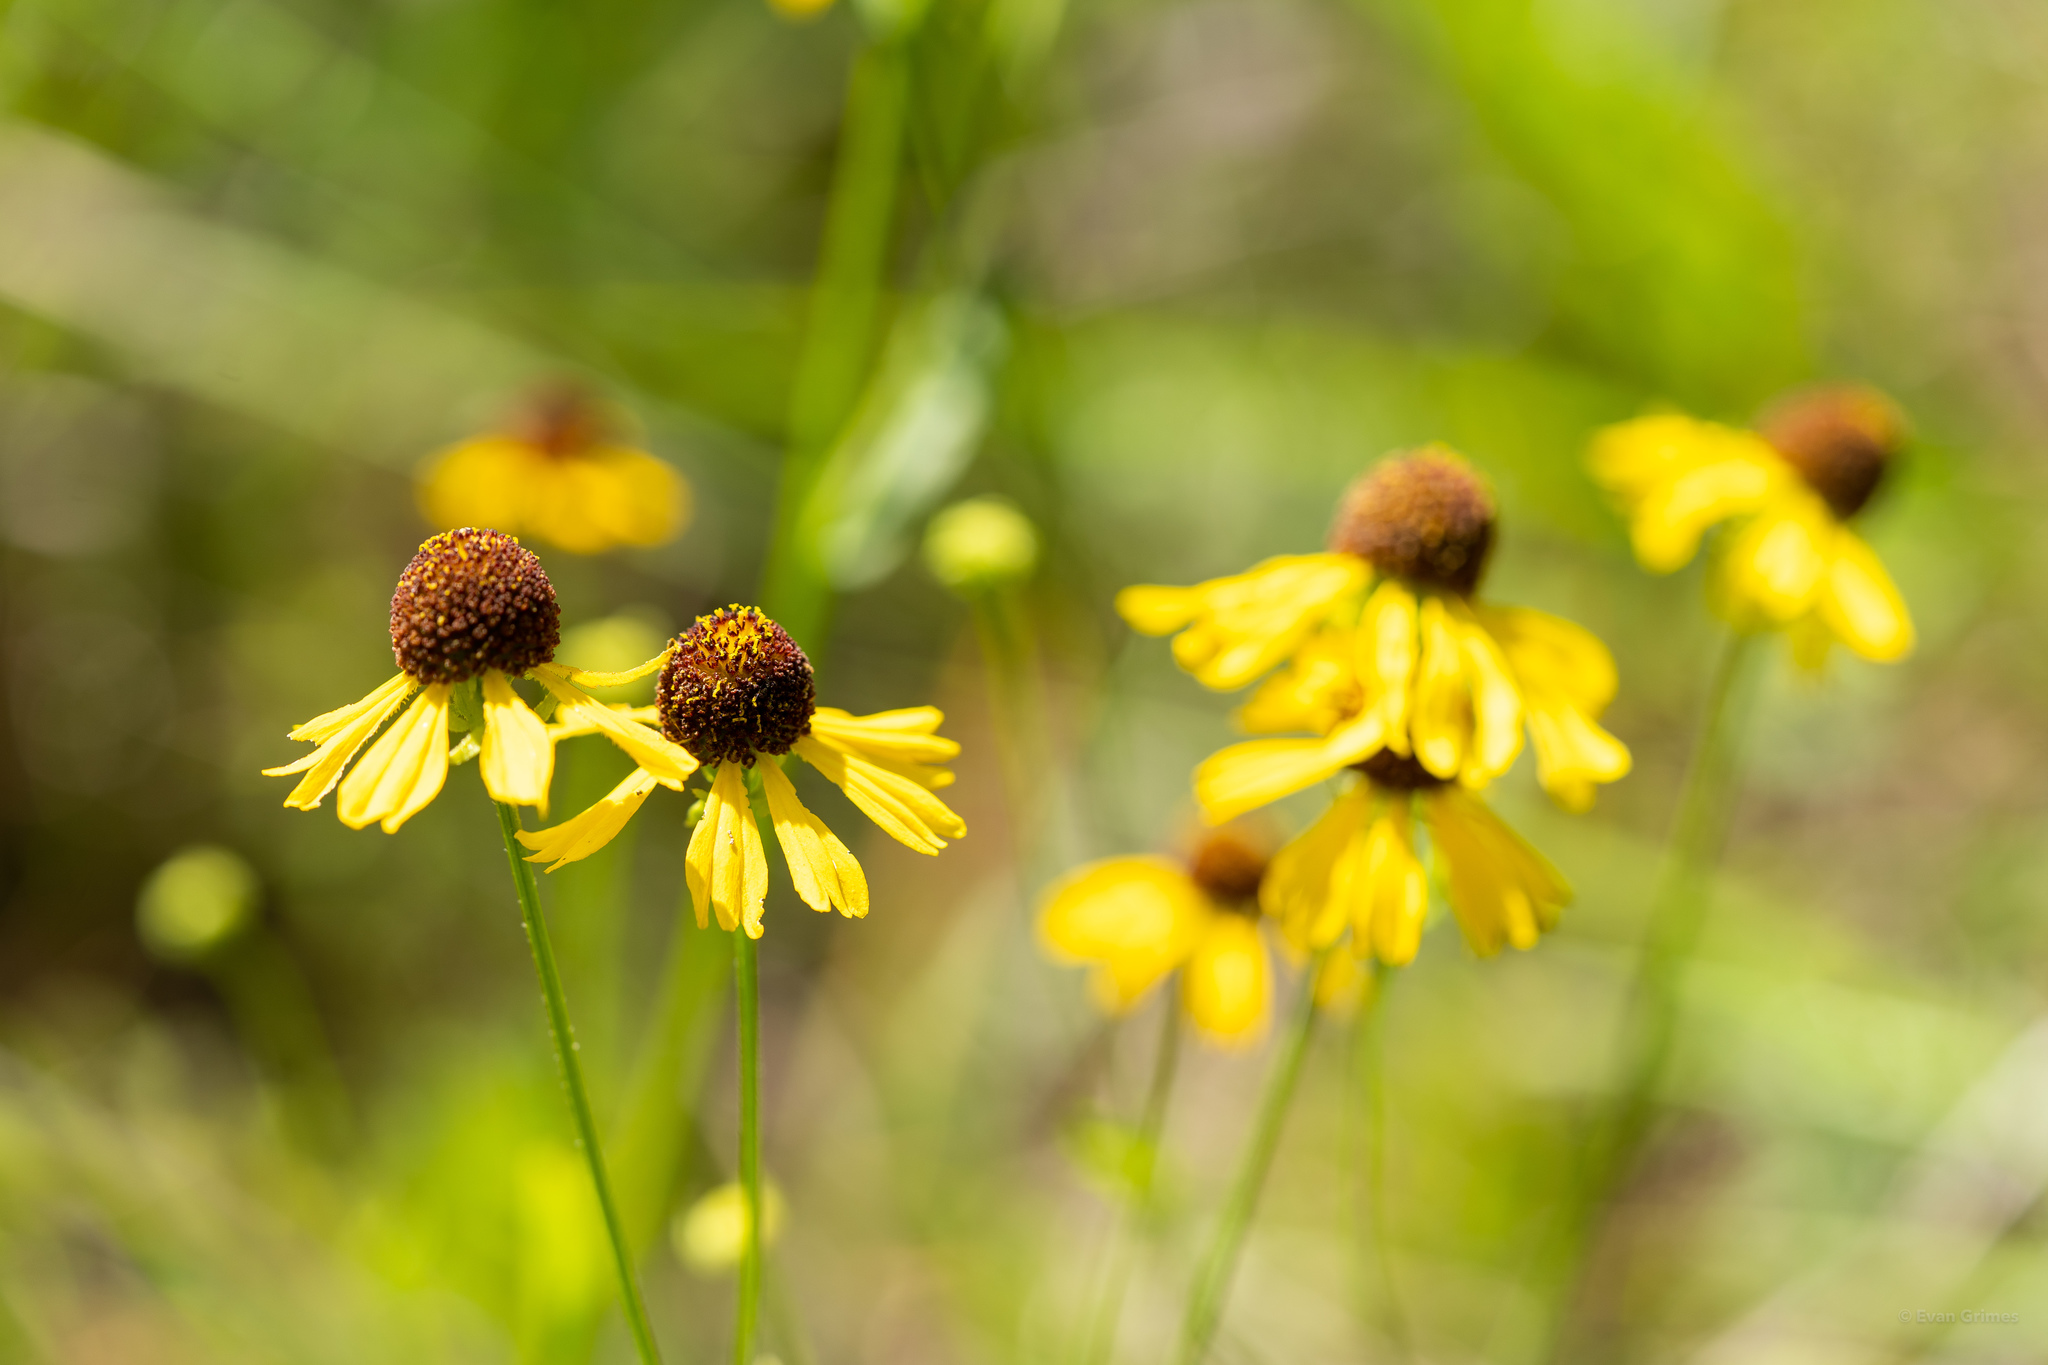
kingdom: Plantae
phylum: Tracheophyta
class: Magnoliopsida
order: Asterales
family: Asteraceae
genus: Helenium
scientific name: Helenium flexuosum
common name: Naked-flowered sneezeweed
